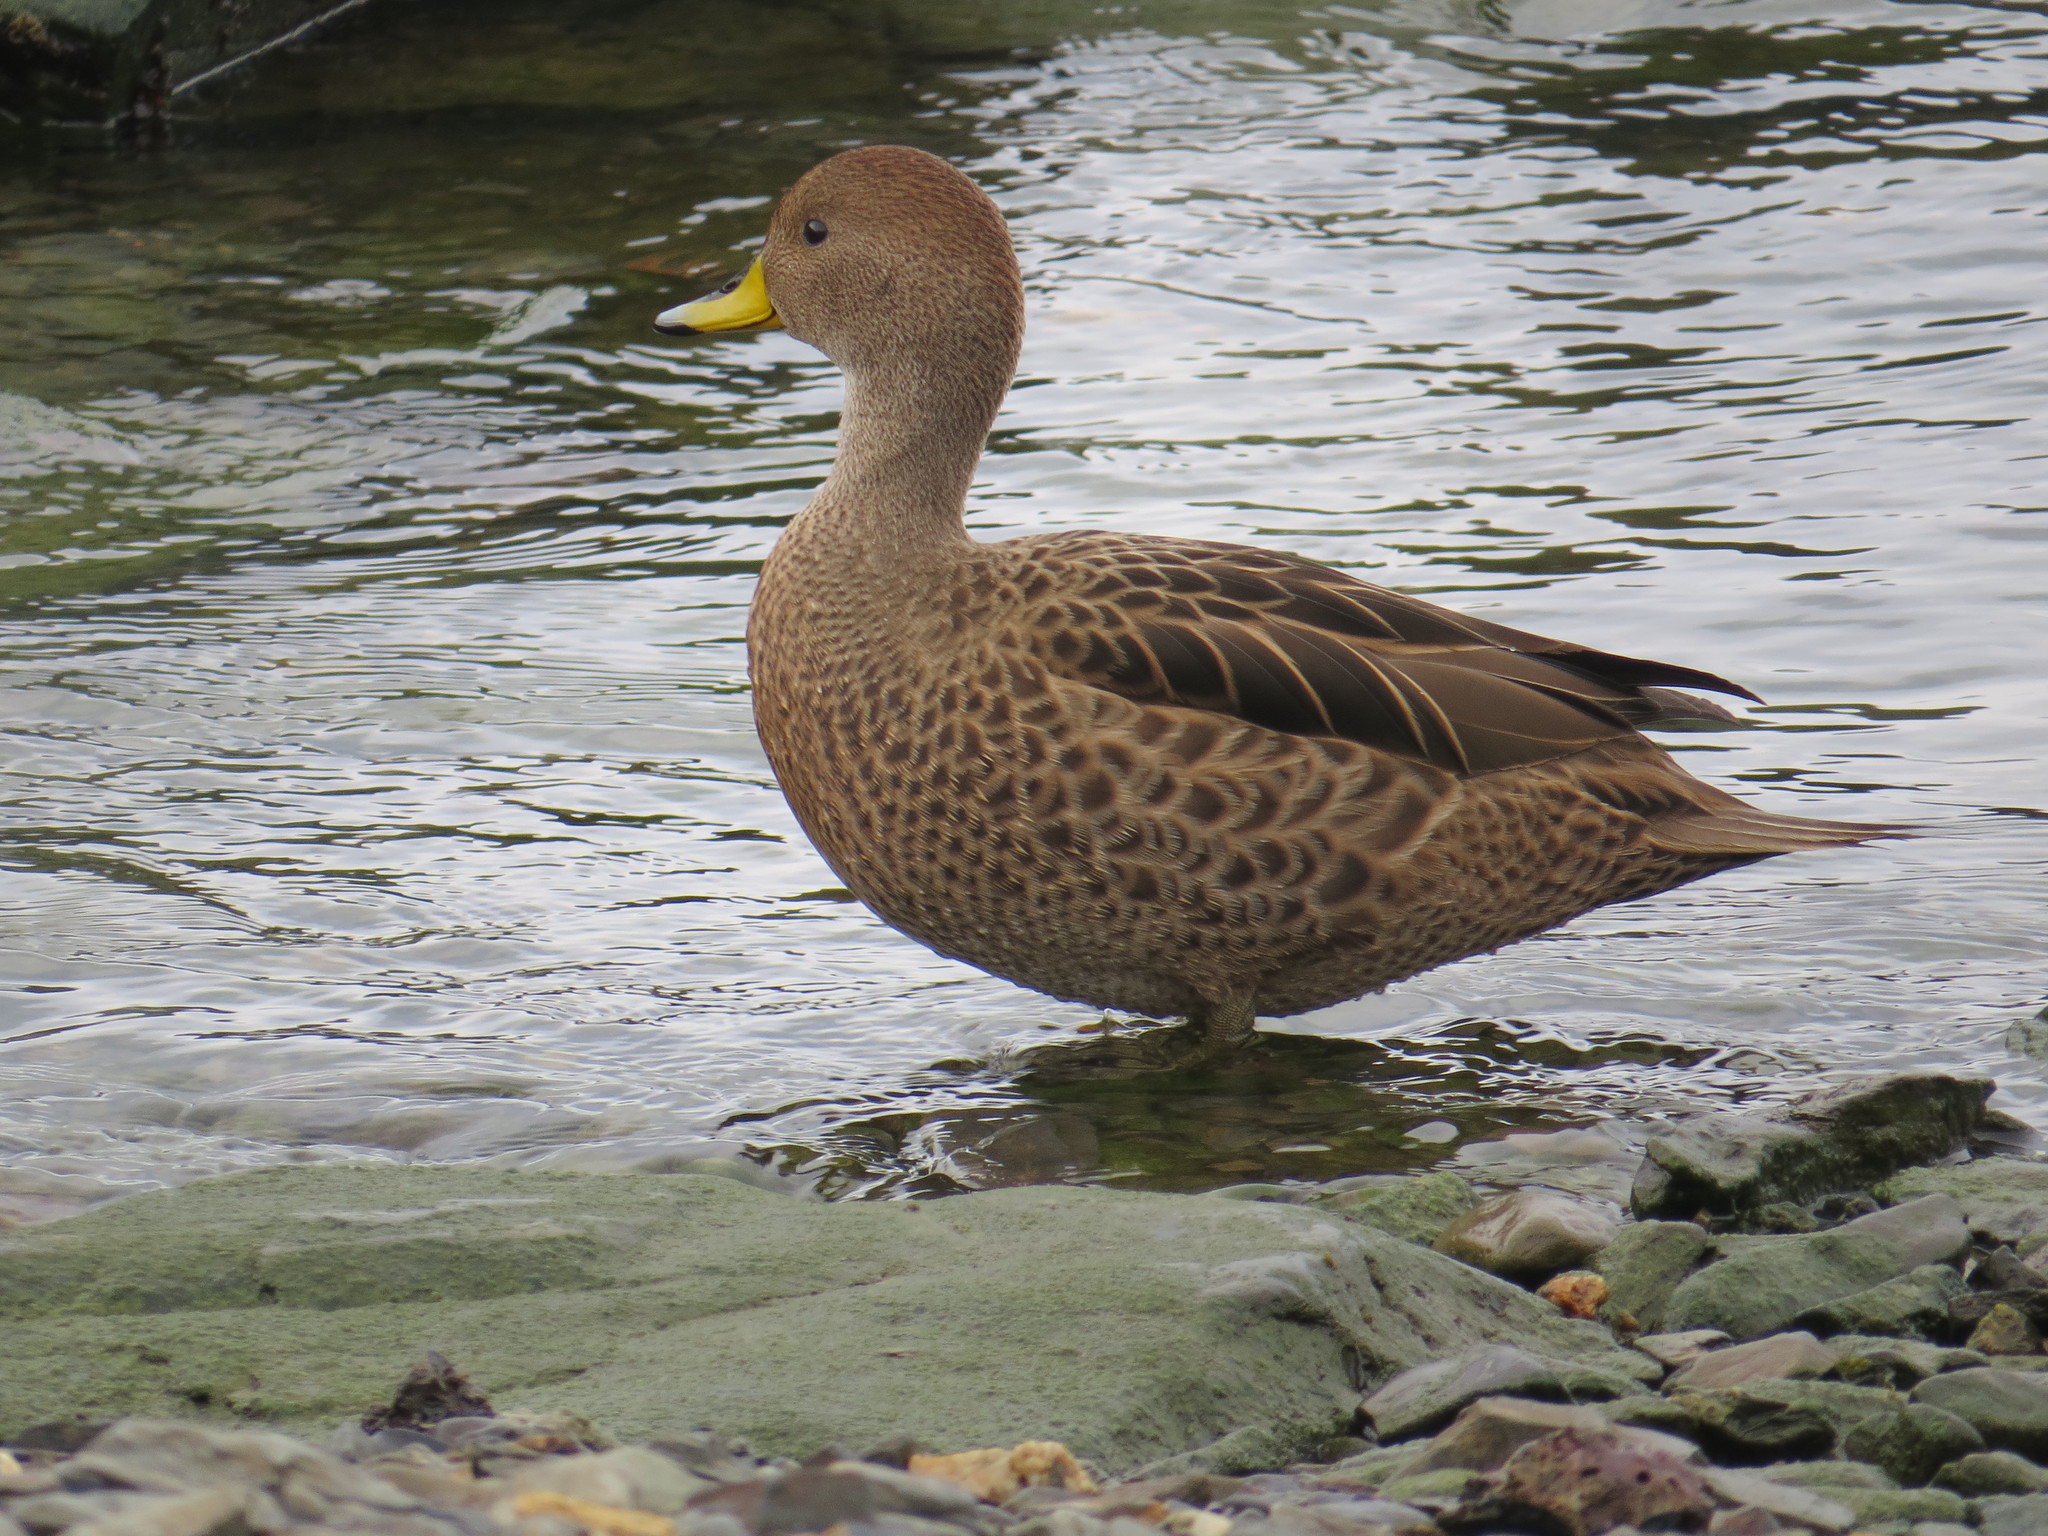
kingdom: Animalia
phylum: Chordata
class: Aves
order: Anseriformes
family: Anatidae
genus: Anas
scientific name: Anas georgica
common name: Yellow-billed pintail
